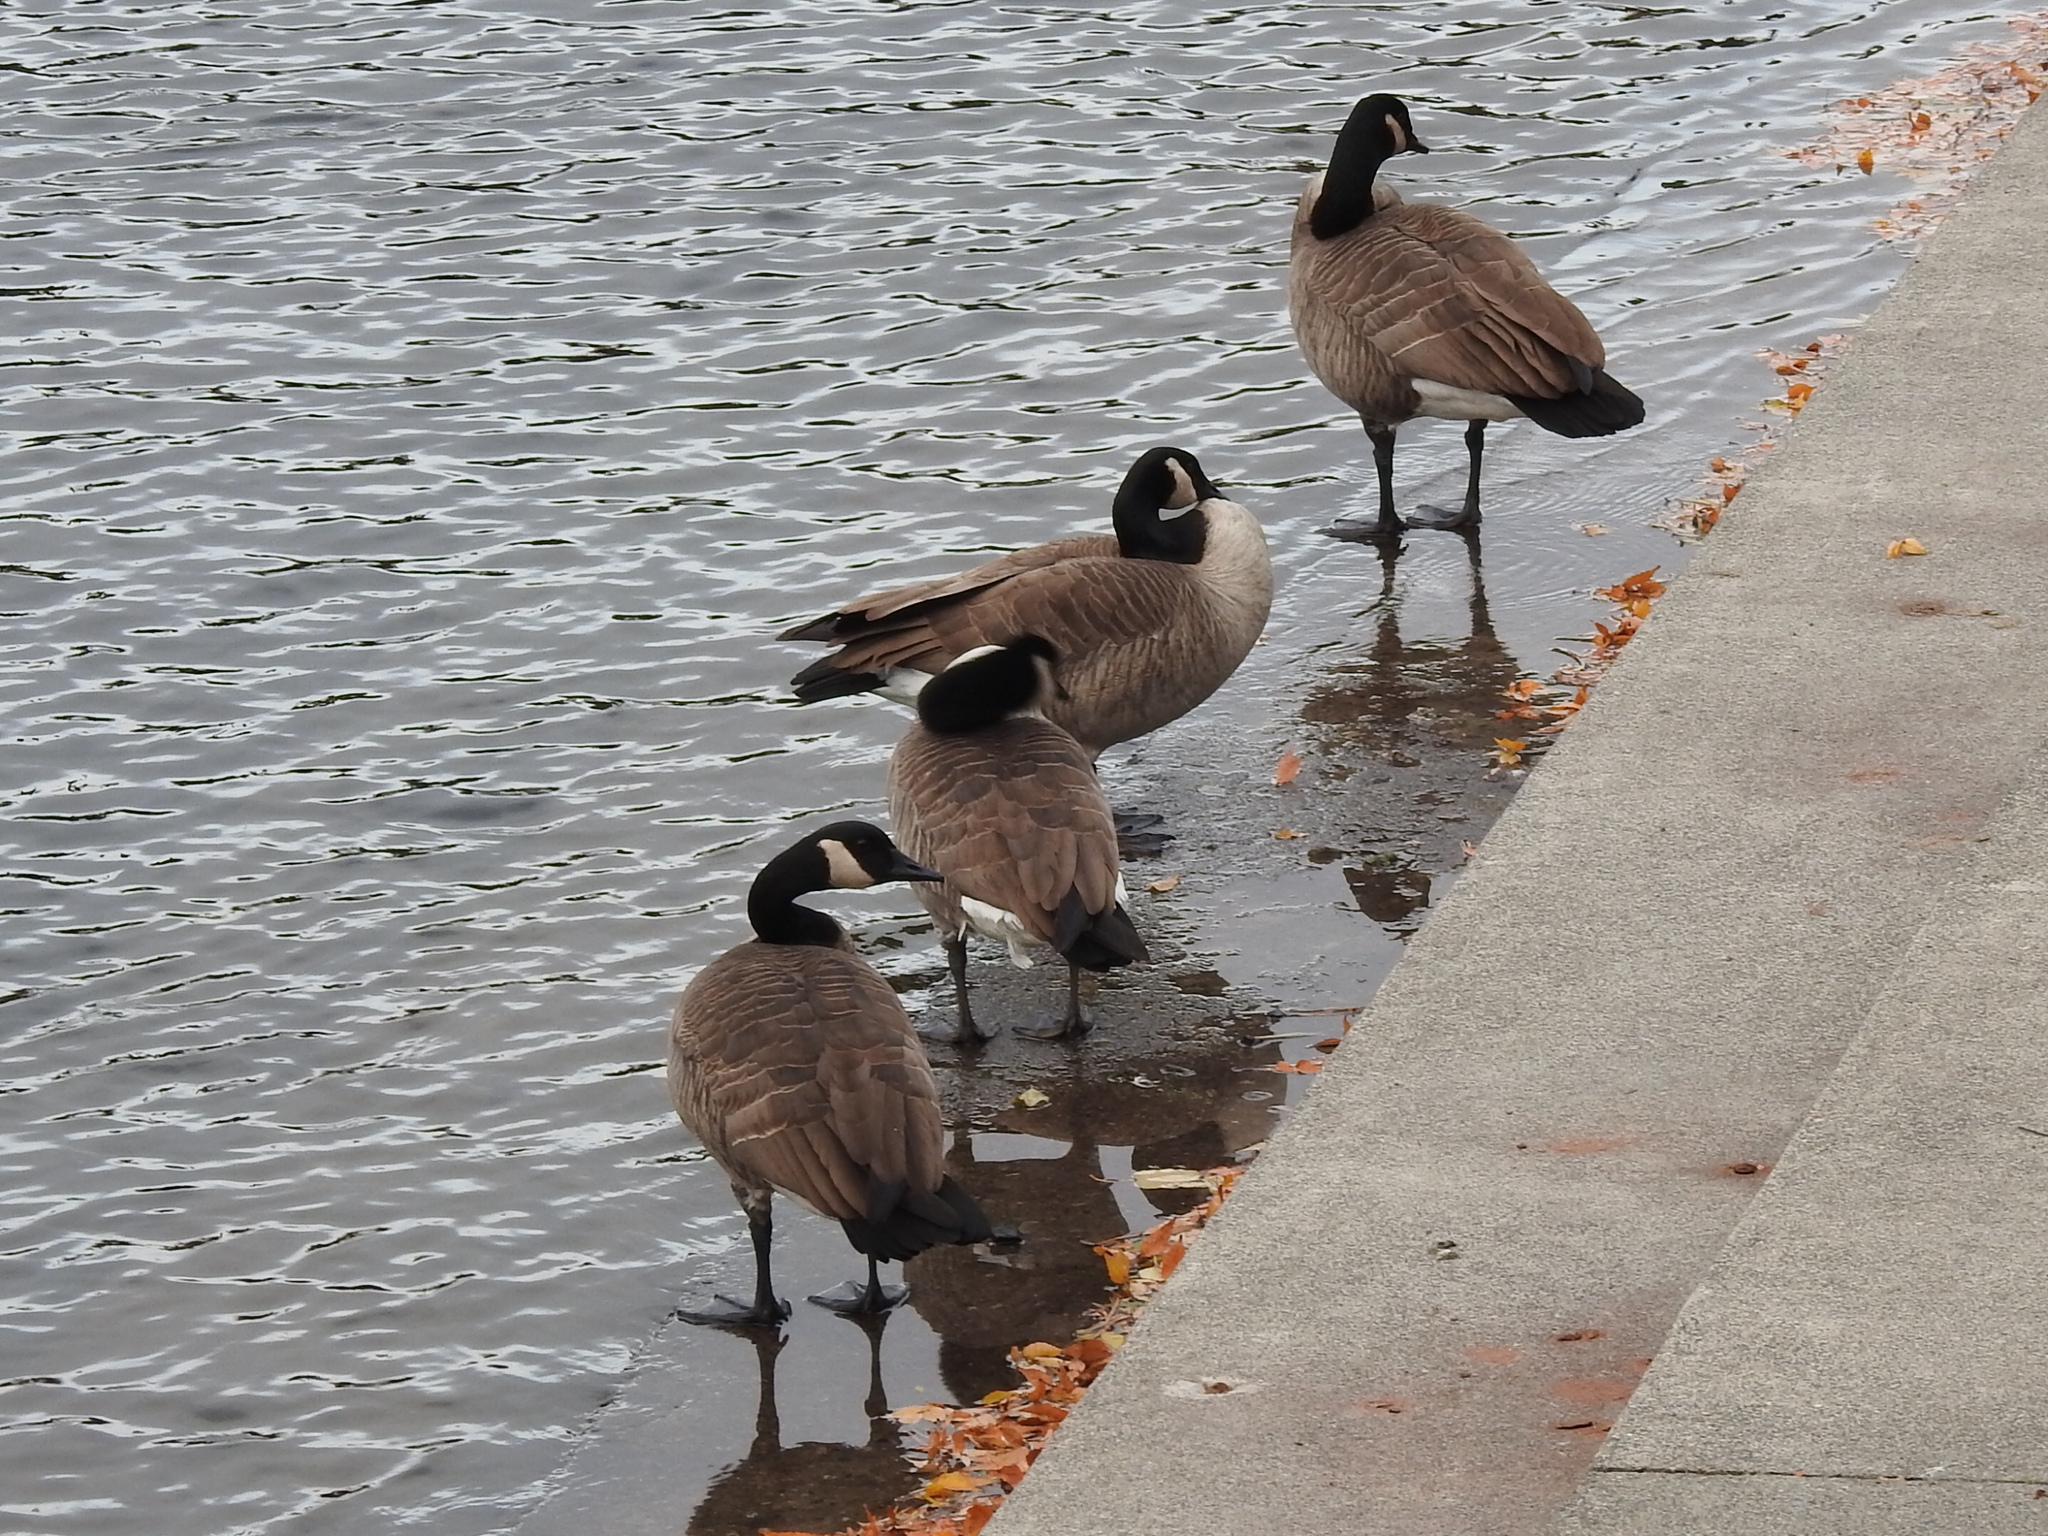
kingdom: Animalia
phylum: Chordata
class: Aves
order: Anseriformes
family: Anatidae
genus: Branta
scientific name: Branta canadensis
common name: Canada goose
